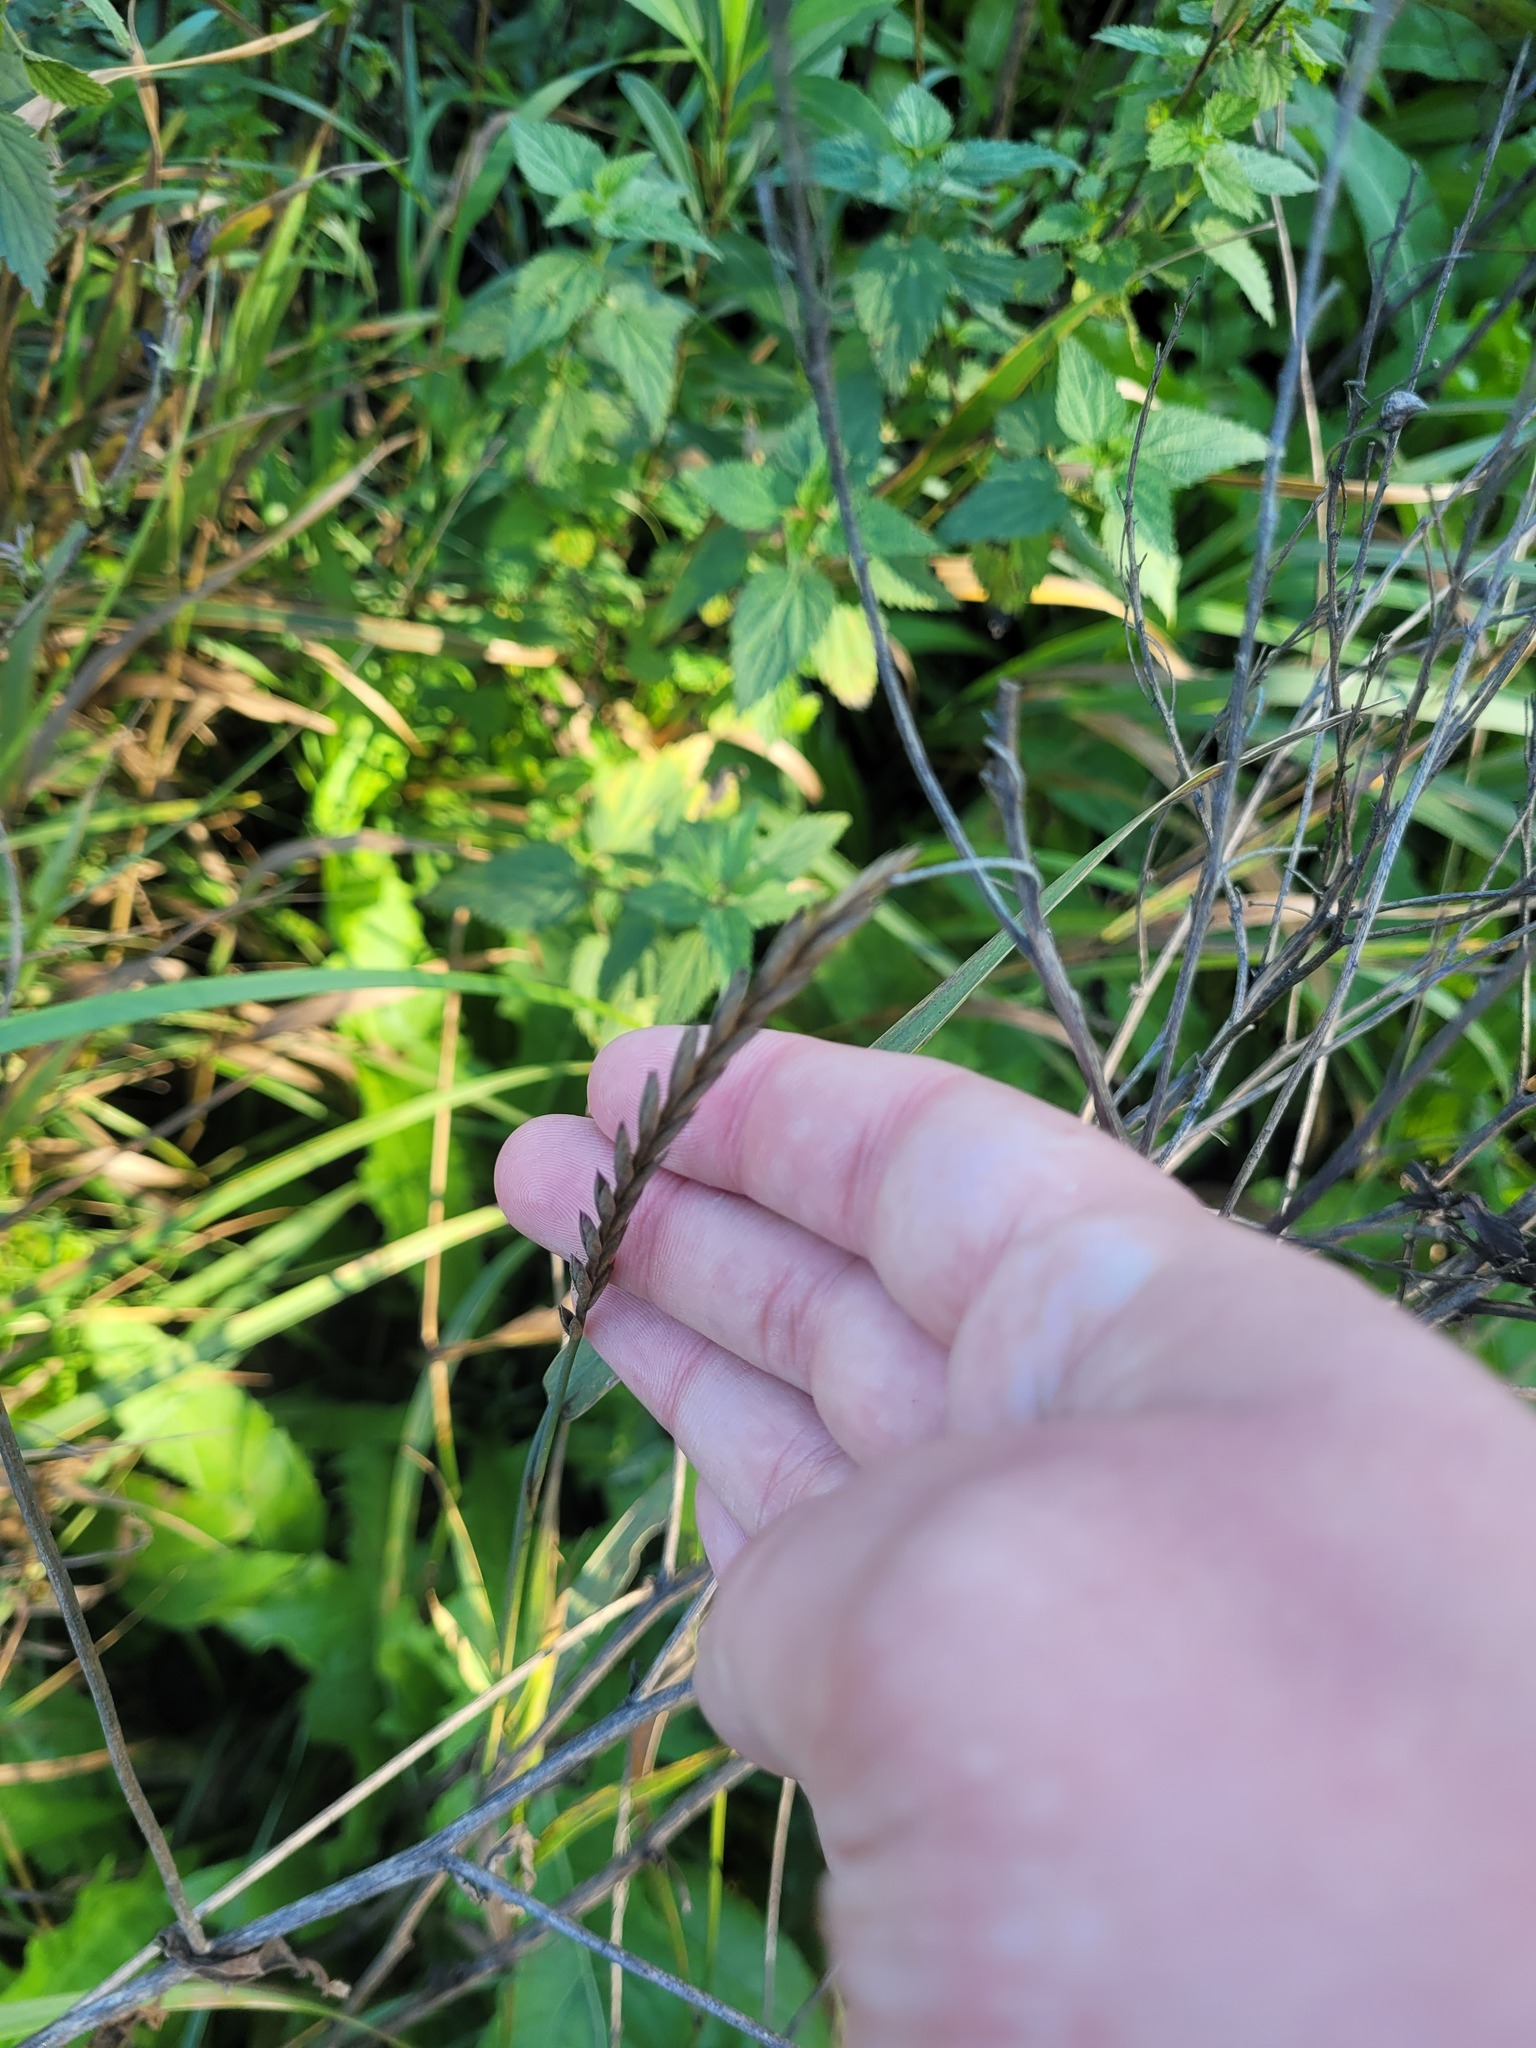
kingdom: Plantae
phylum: Tracheophyta
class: Liliopsida
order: Poales
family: Poaceae
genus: Elymus
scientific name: Elymus repens
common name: Quackgrass
